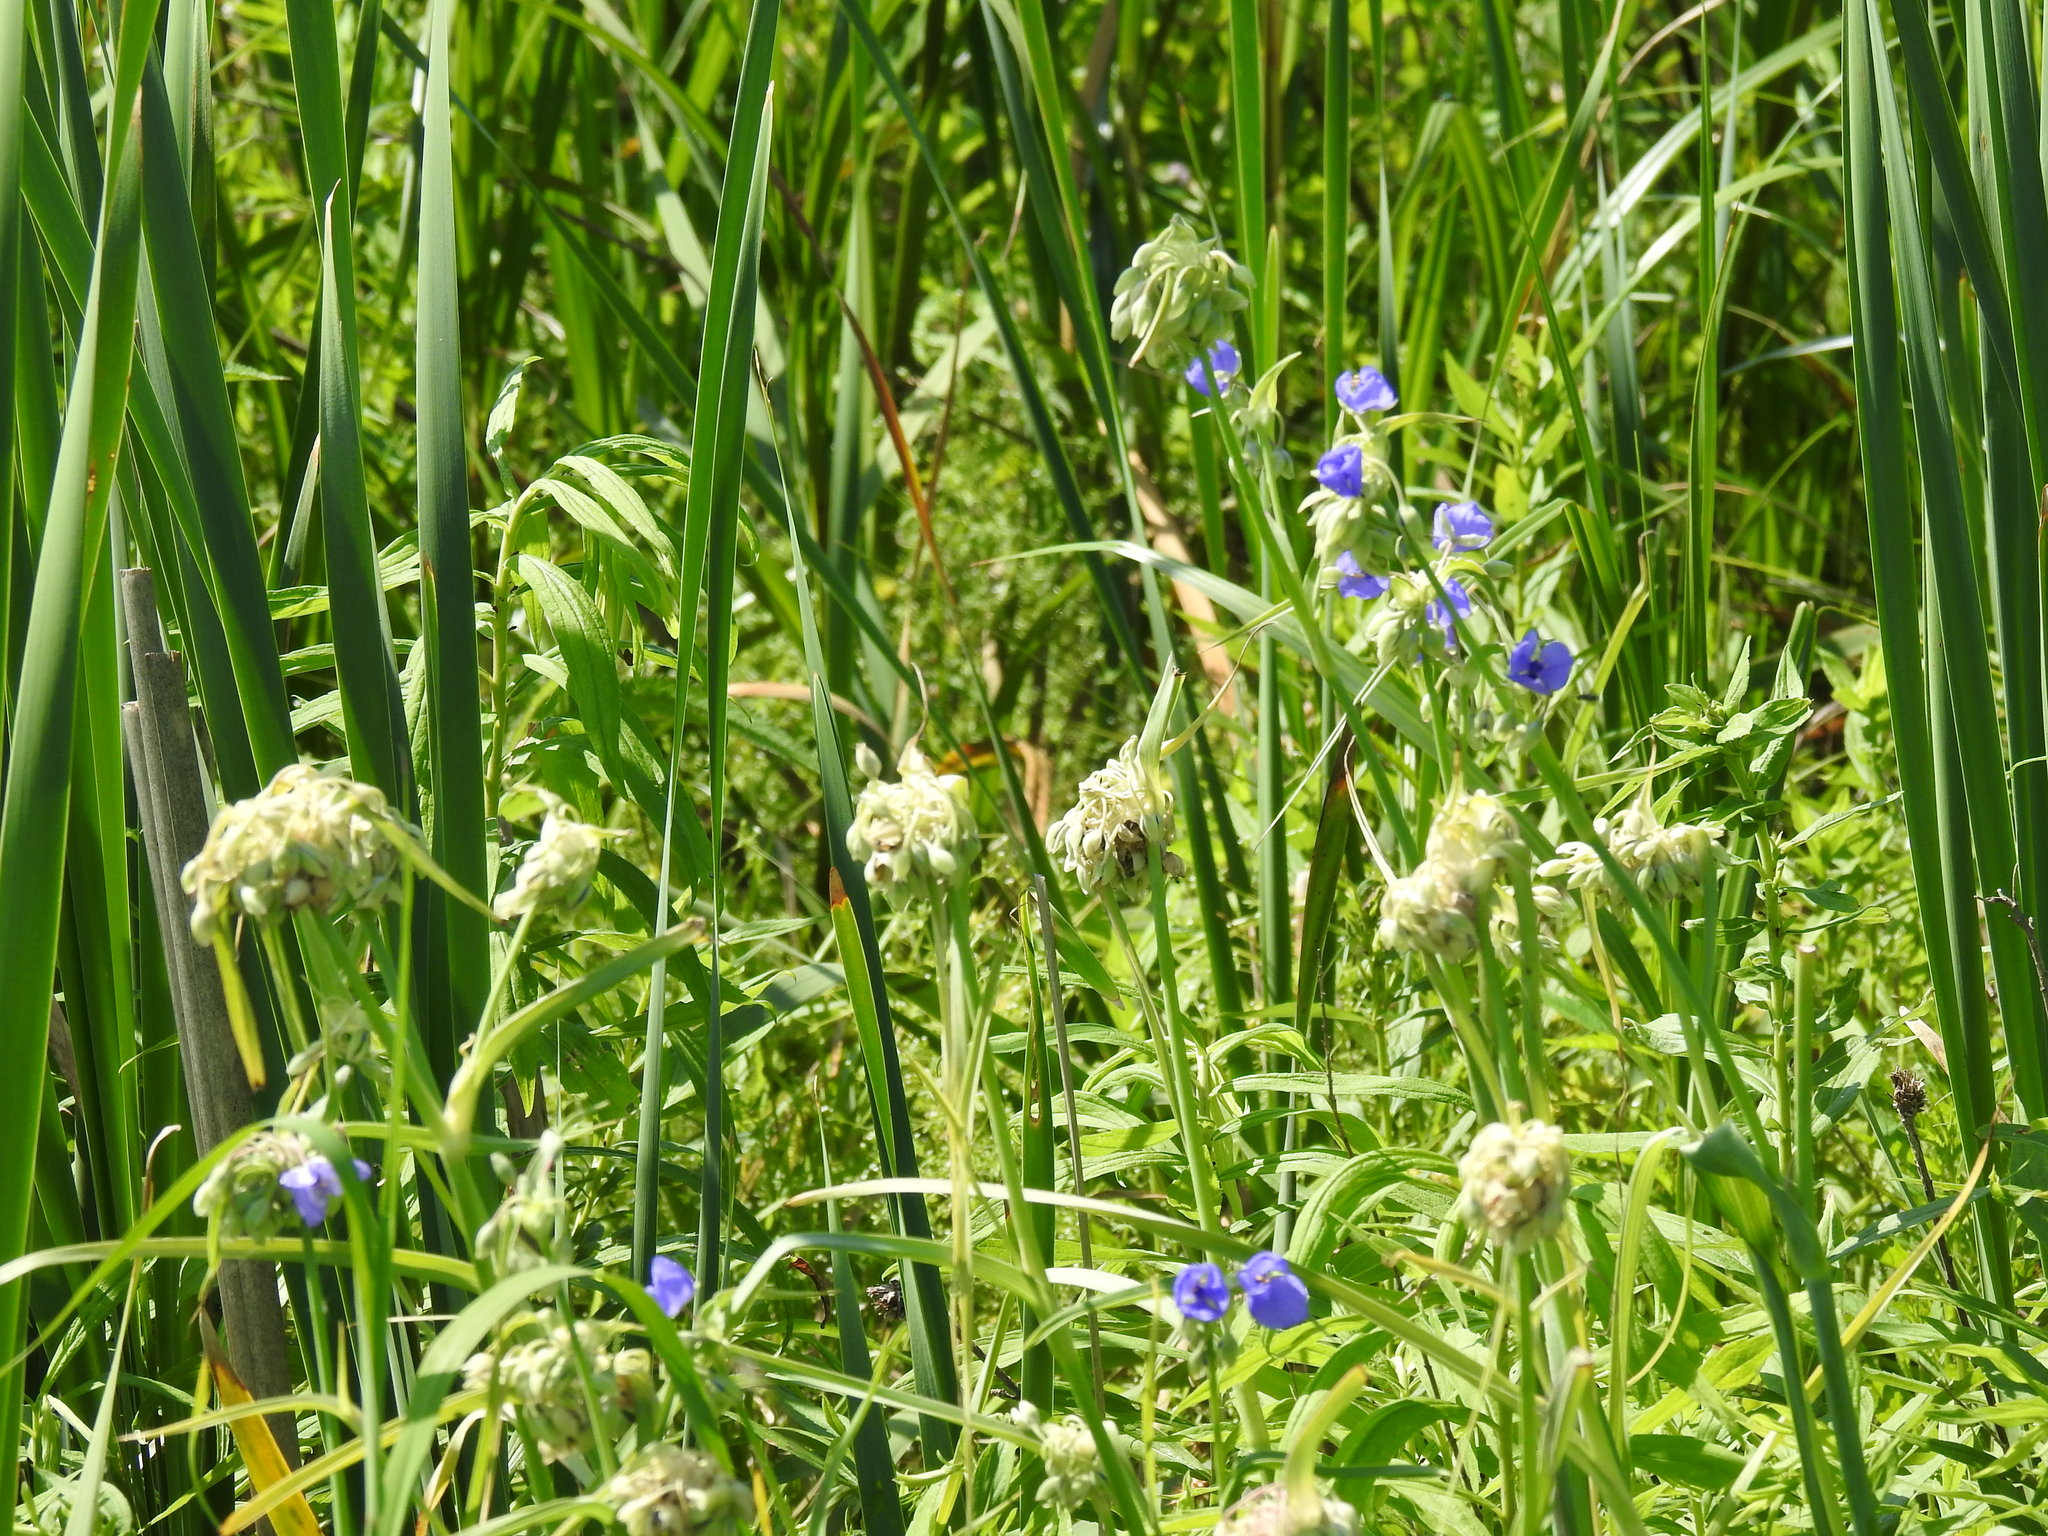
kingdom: Plantae
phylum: Tracheophyta
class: Liliopsida
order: Commelinales
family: Commelinaceae
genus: Tradescantia
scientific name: Tradescantia ohiensis
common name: Ohio spiderwort
